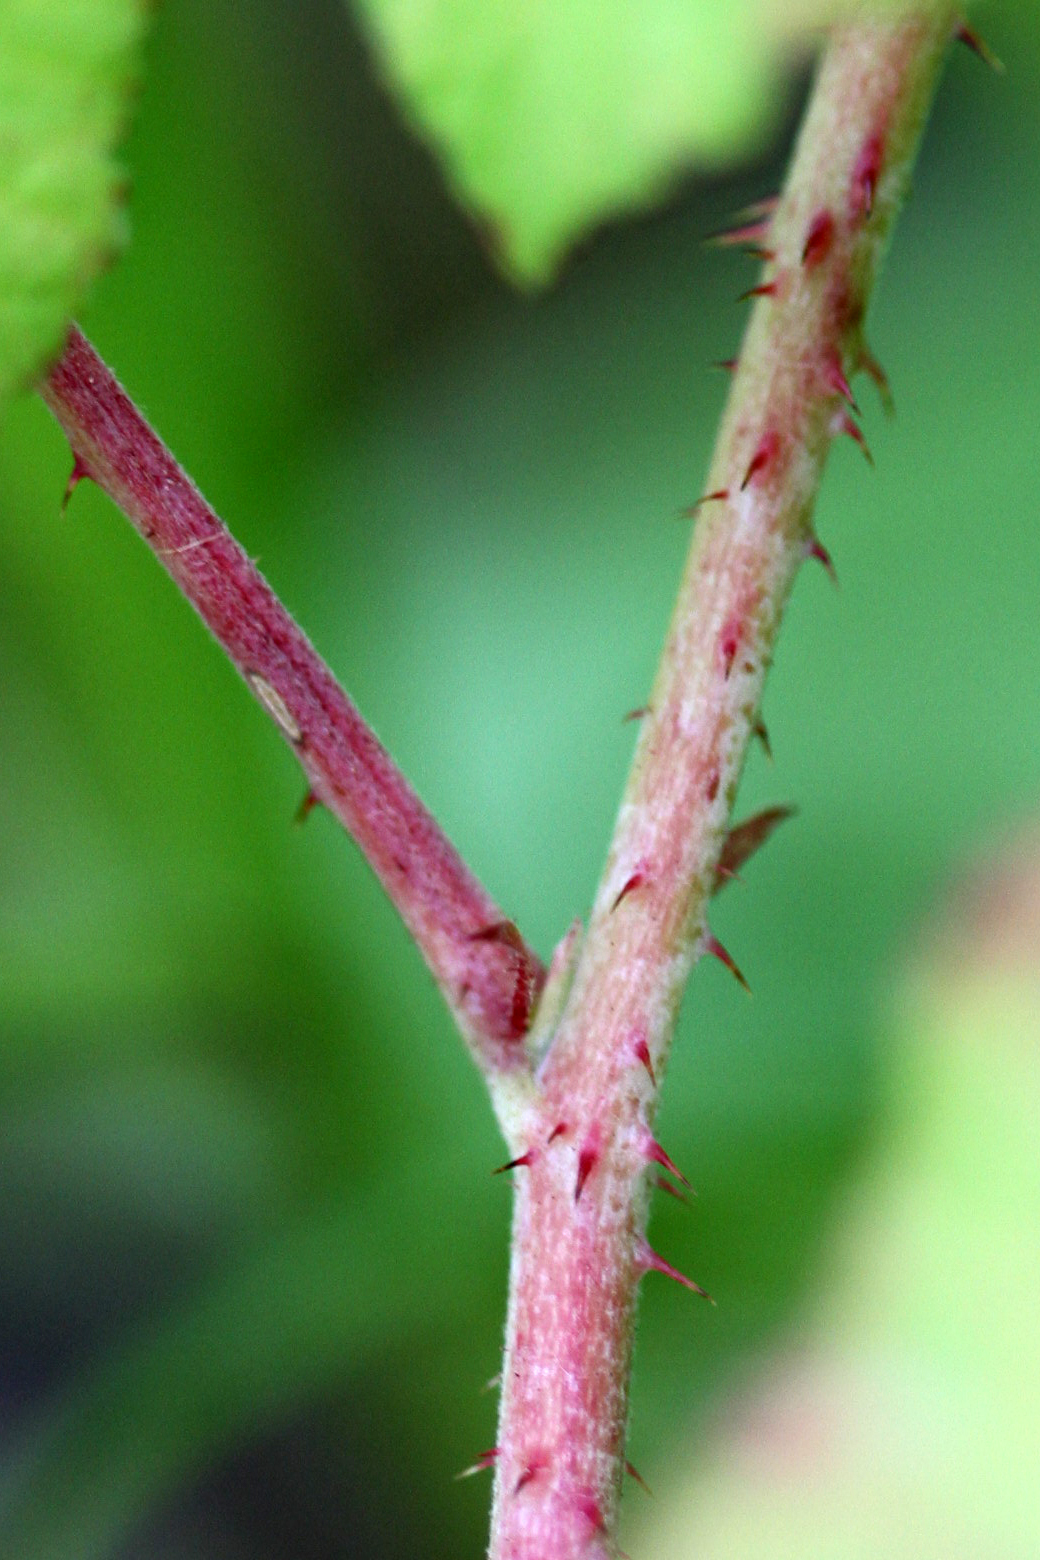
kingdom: Plantae
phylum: Tracheophyta
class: Magnoliopsida
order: Rosales
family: Rosaceae
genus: Rubus
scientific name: Rubus caesius
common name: Dewberry
